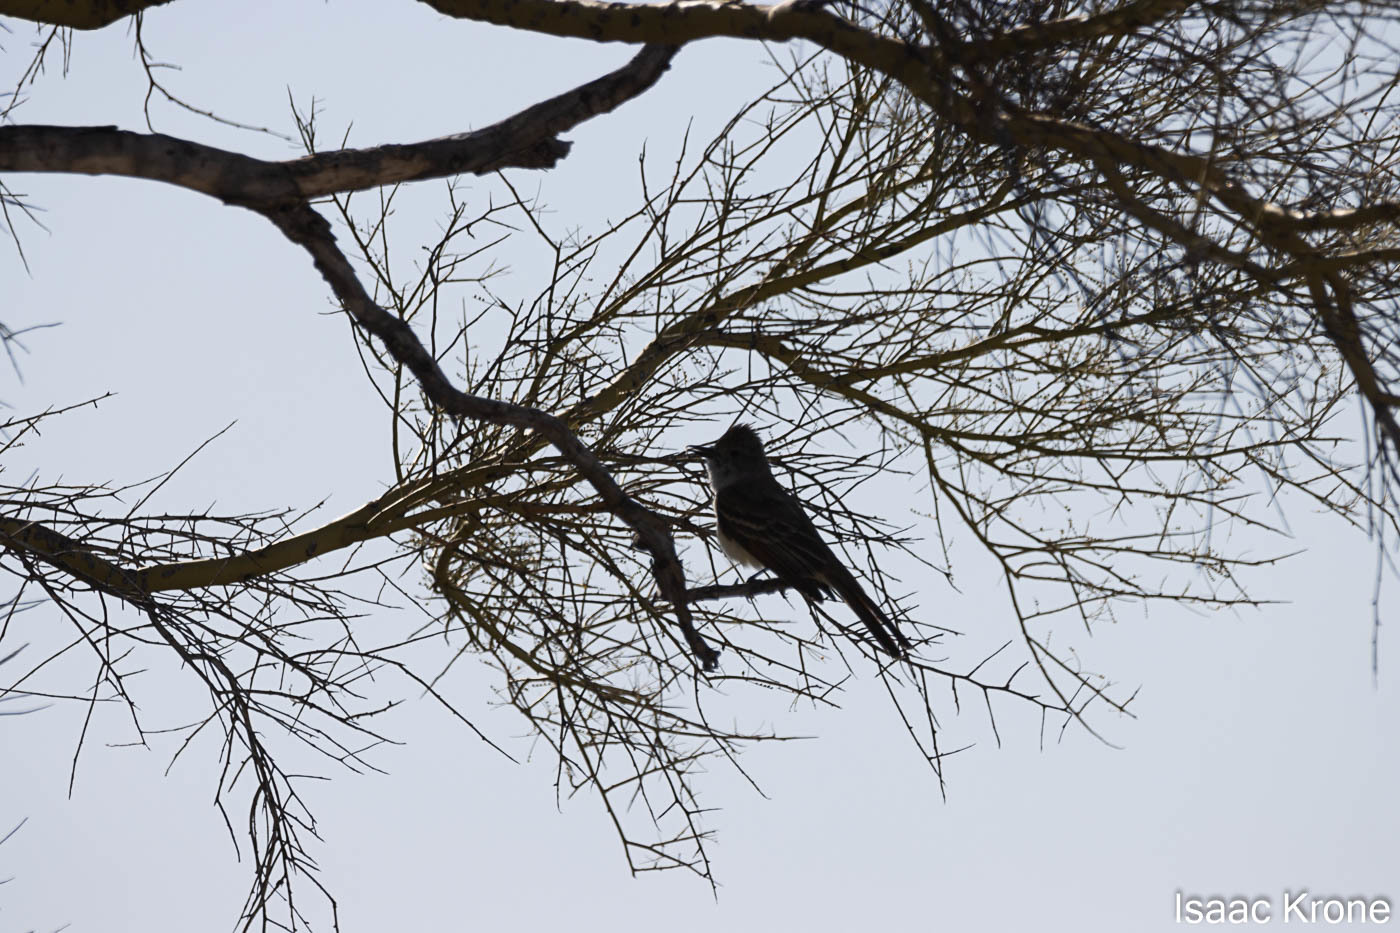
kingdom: Animalia
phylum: Chordata
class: Aves
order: Passeriformes
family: Tyrannidae
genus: Myiarchus
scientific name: Myiarchus cinerascens
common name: Ash-throated flycatcher
